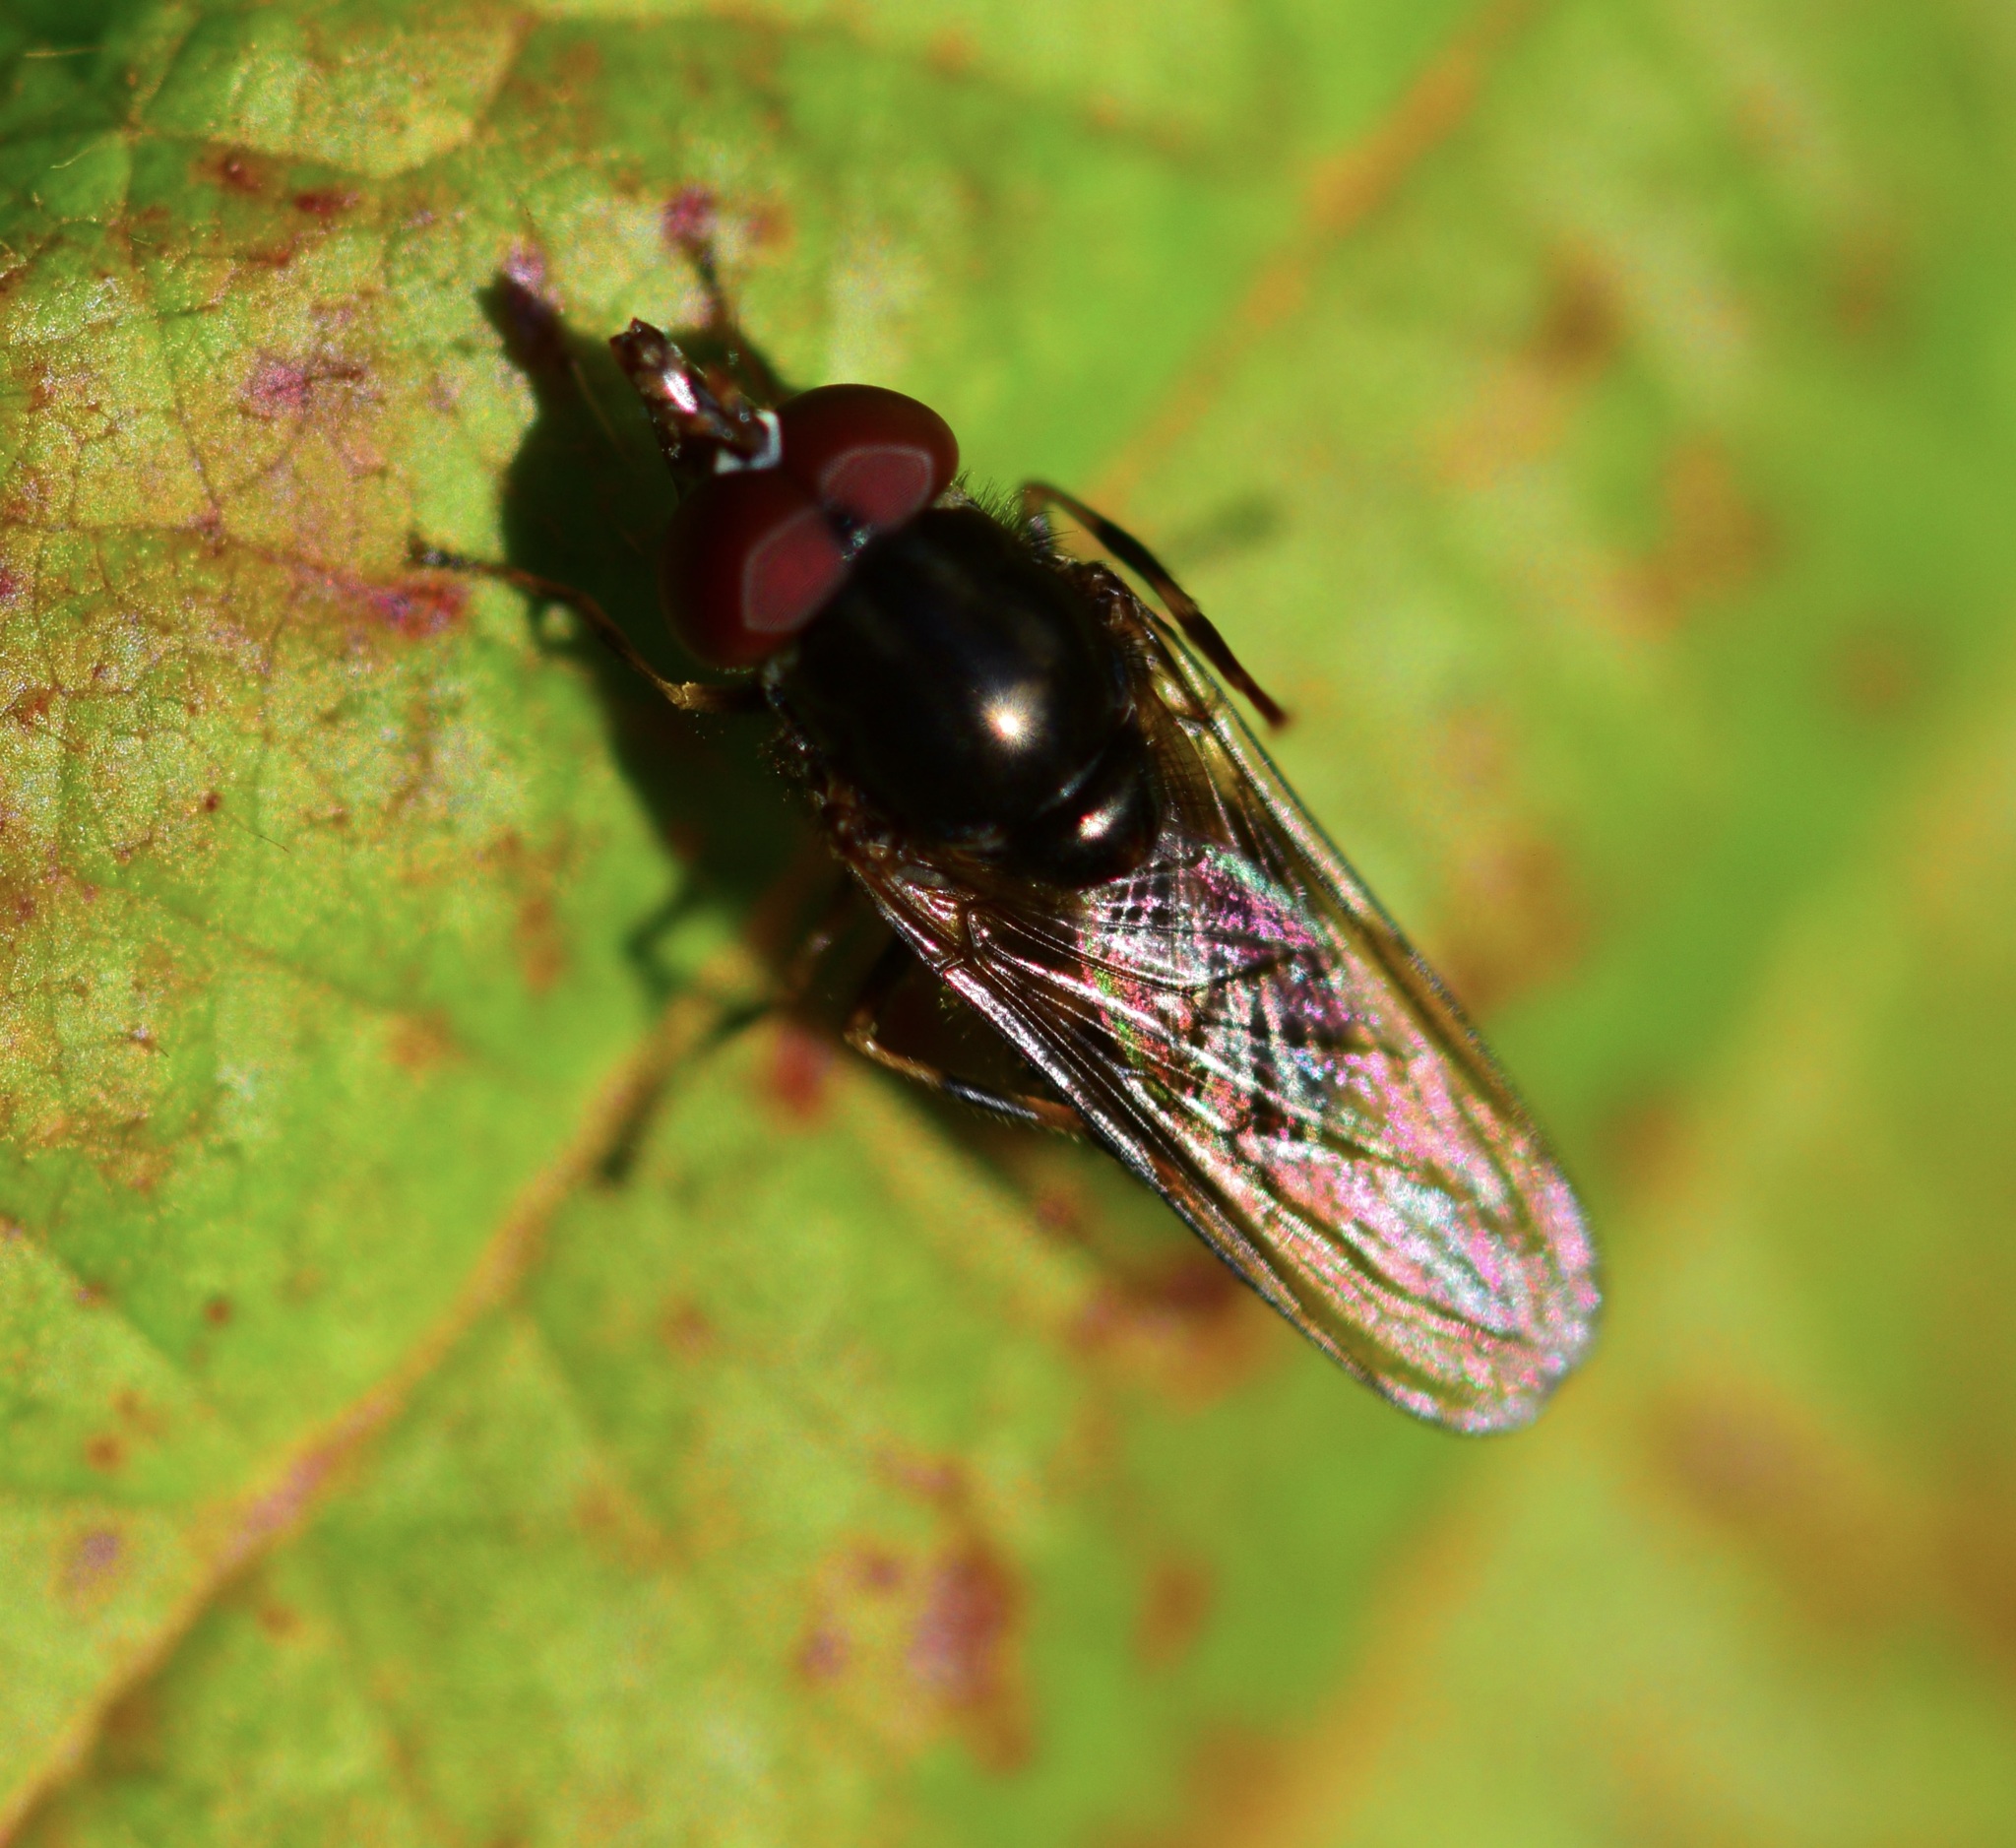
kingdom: Animalia
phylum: Arthropoda
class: Insecta
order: Diptera
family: Syrphidae
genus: Rhingia
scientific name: Rhingia nasica
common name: American snout fly
